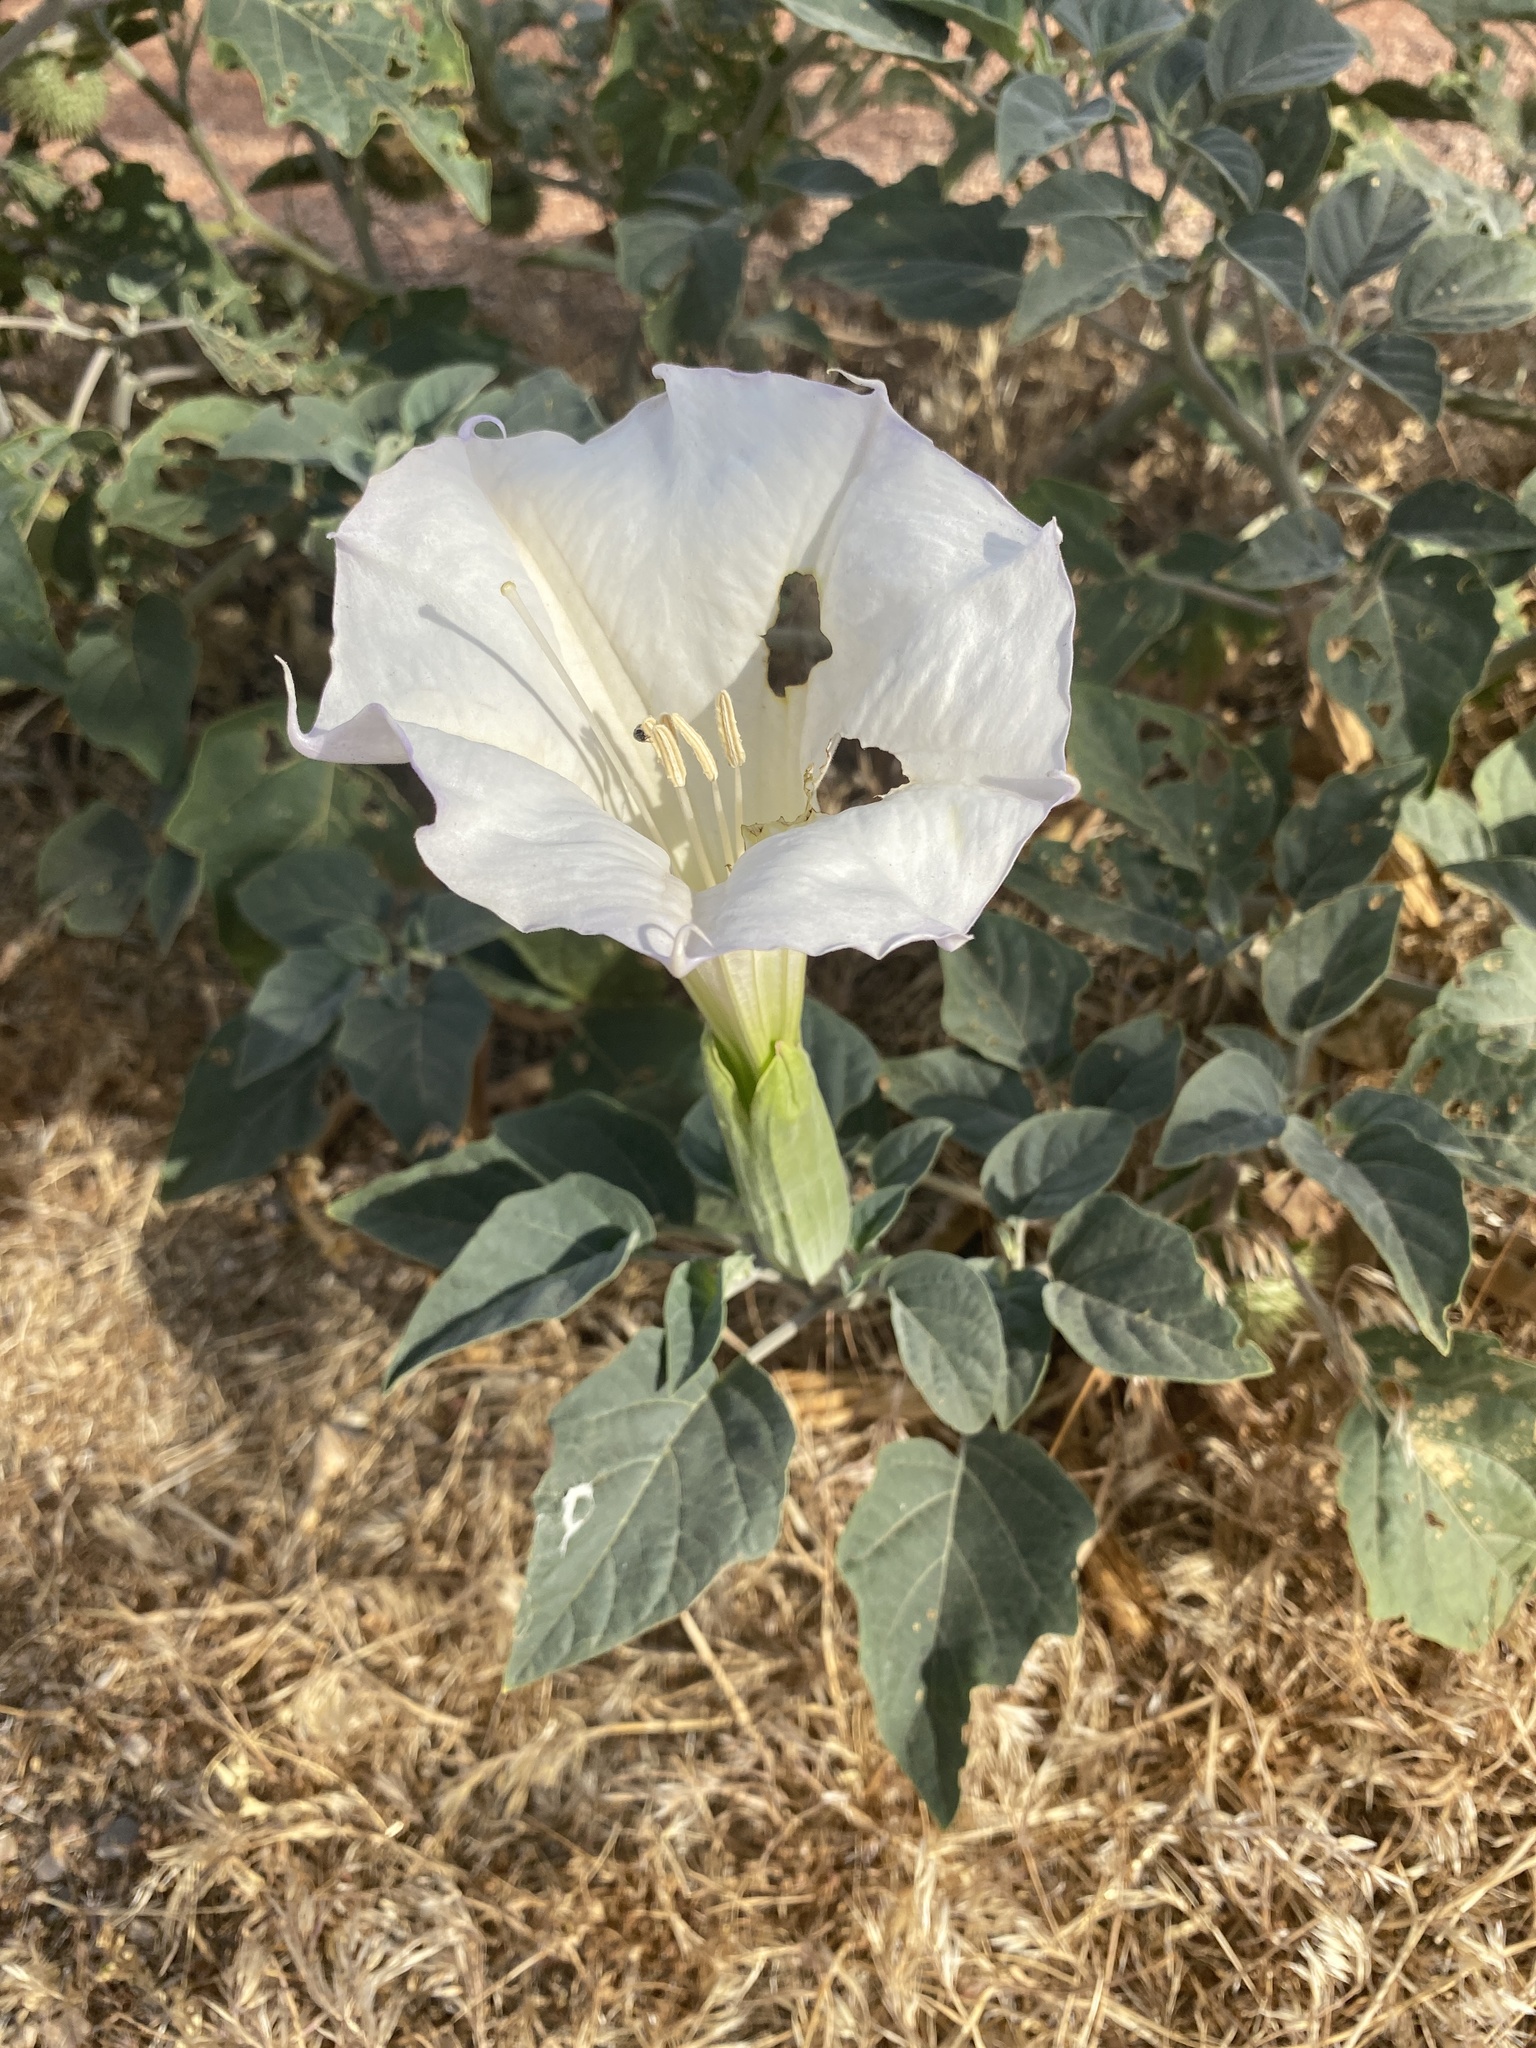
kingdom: Plantae
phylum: Tracheophyta
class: Magnoliopsida
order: Solanales
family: Solanaceae
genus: Datura
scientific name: Datura wrightii
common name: Sacred thorn-apple
